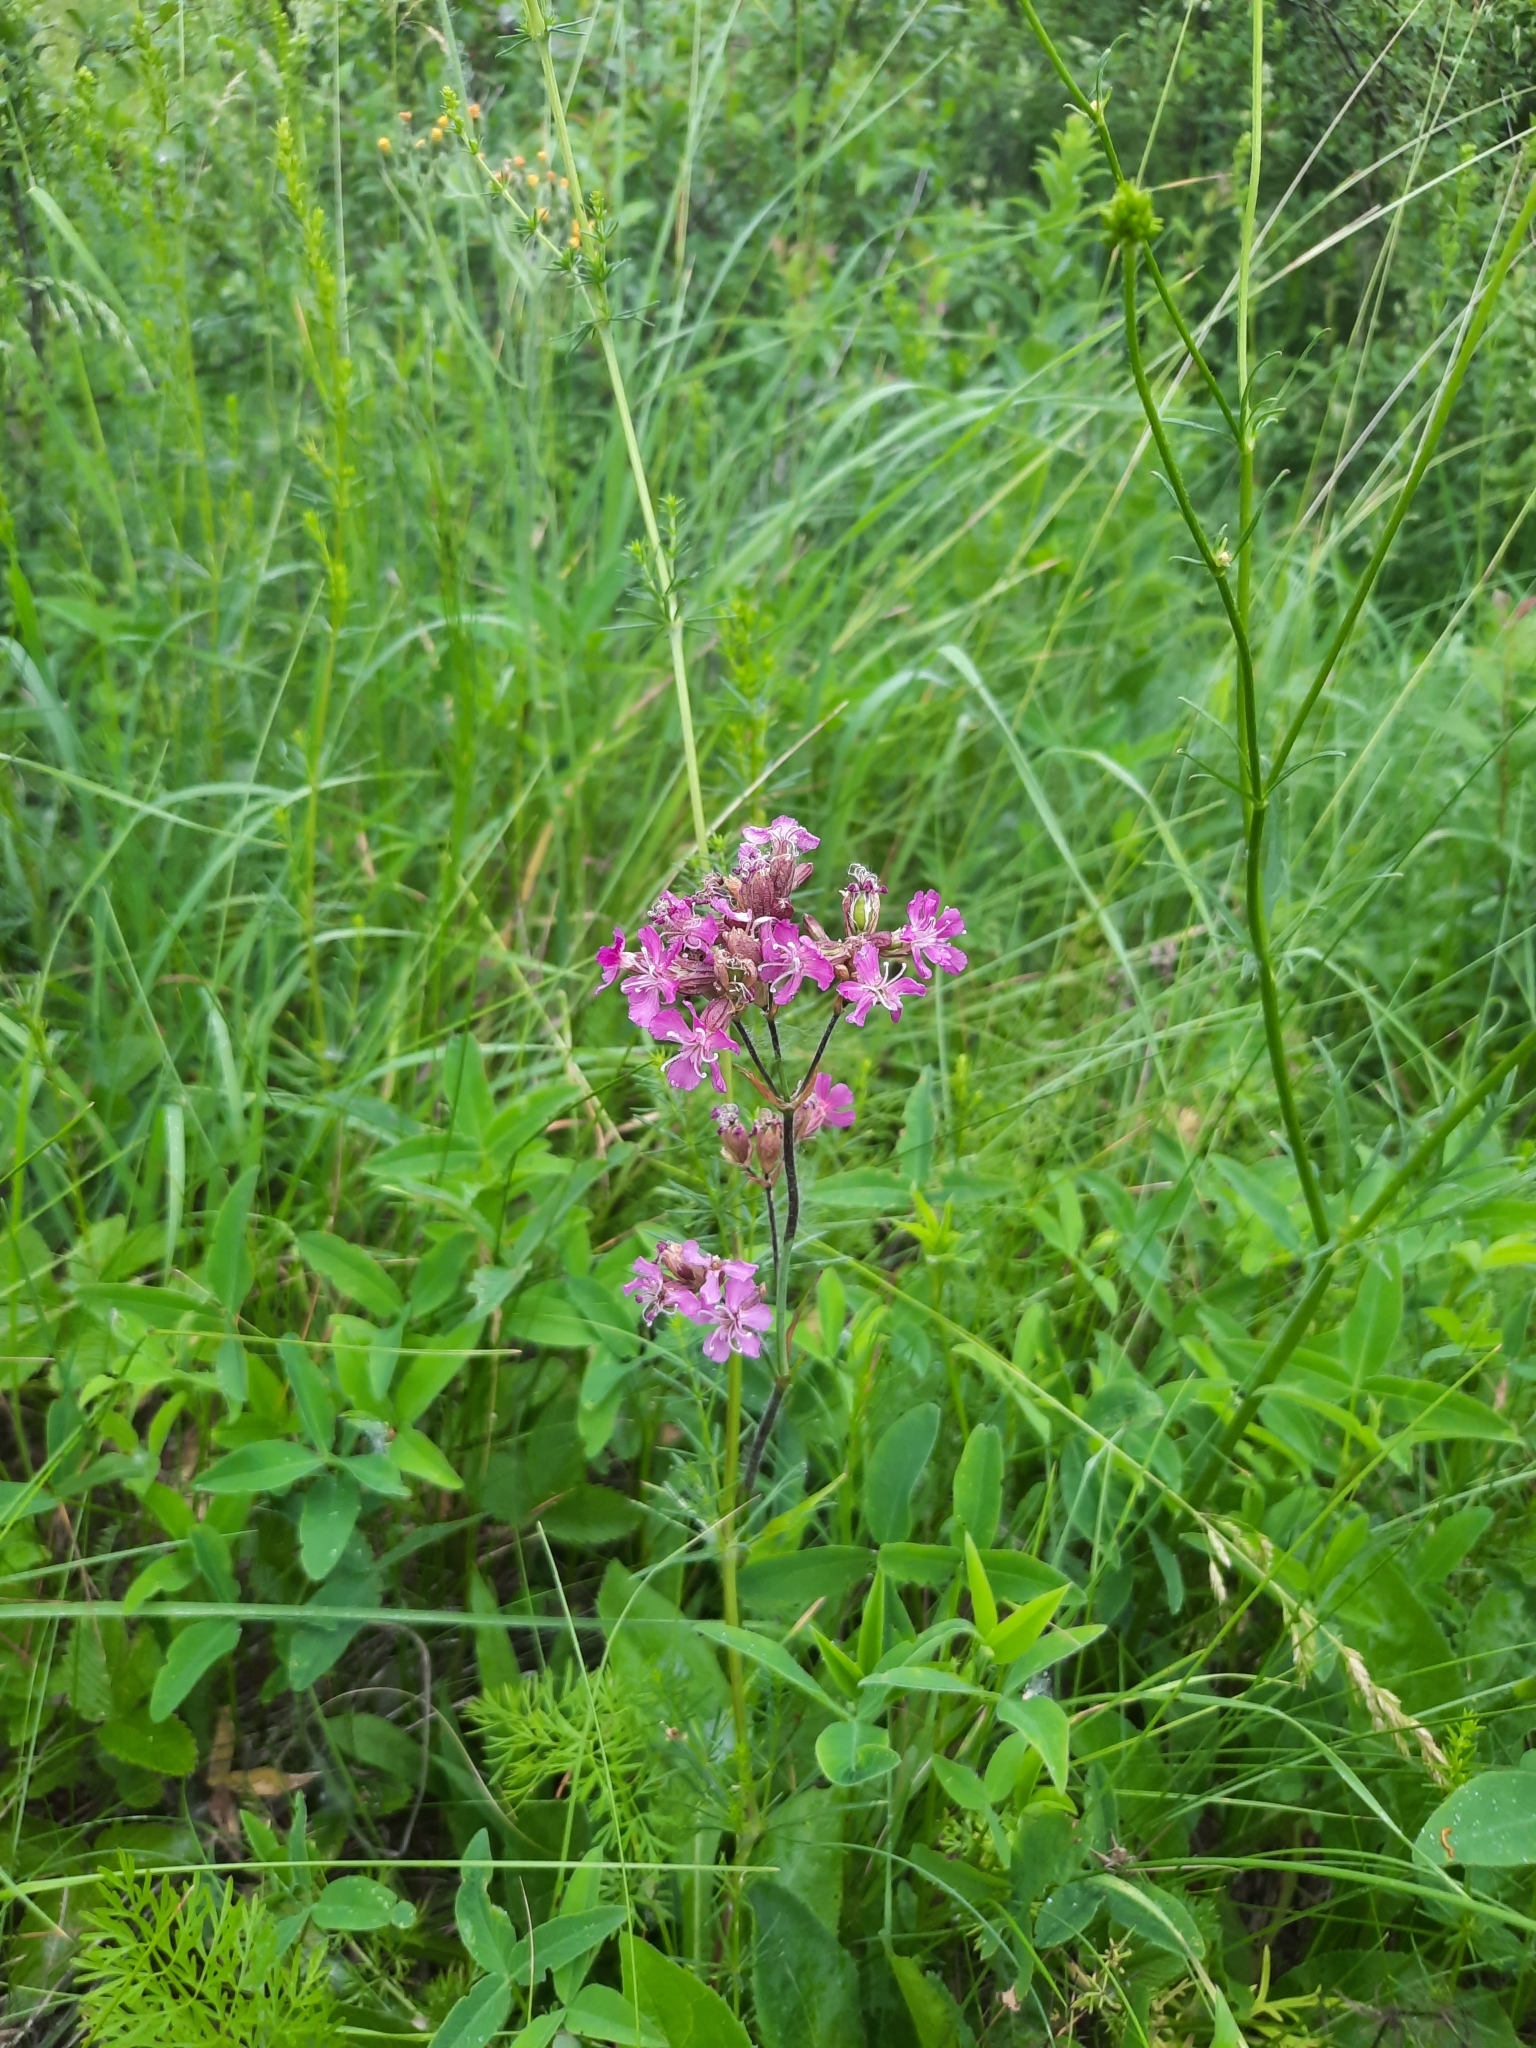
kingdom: Plantae
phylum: Tracheophyta
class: Magnoliopsida
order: Caryophyllales
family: Caryophyllaceae
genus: Viscaria
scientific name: Viscaria vulgaris
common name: Clammy campion
